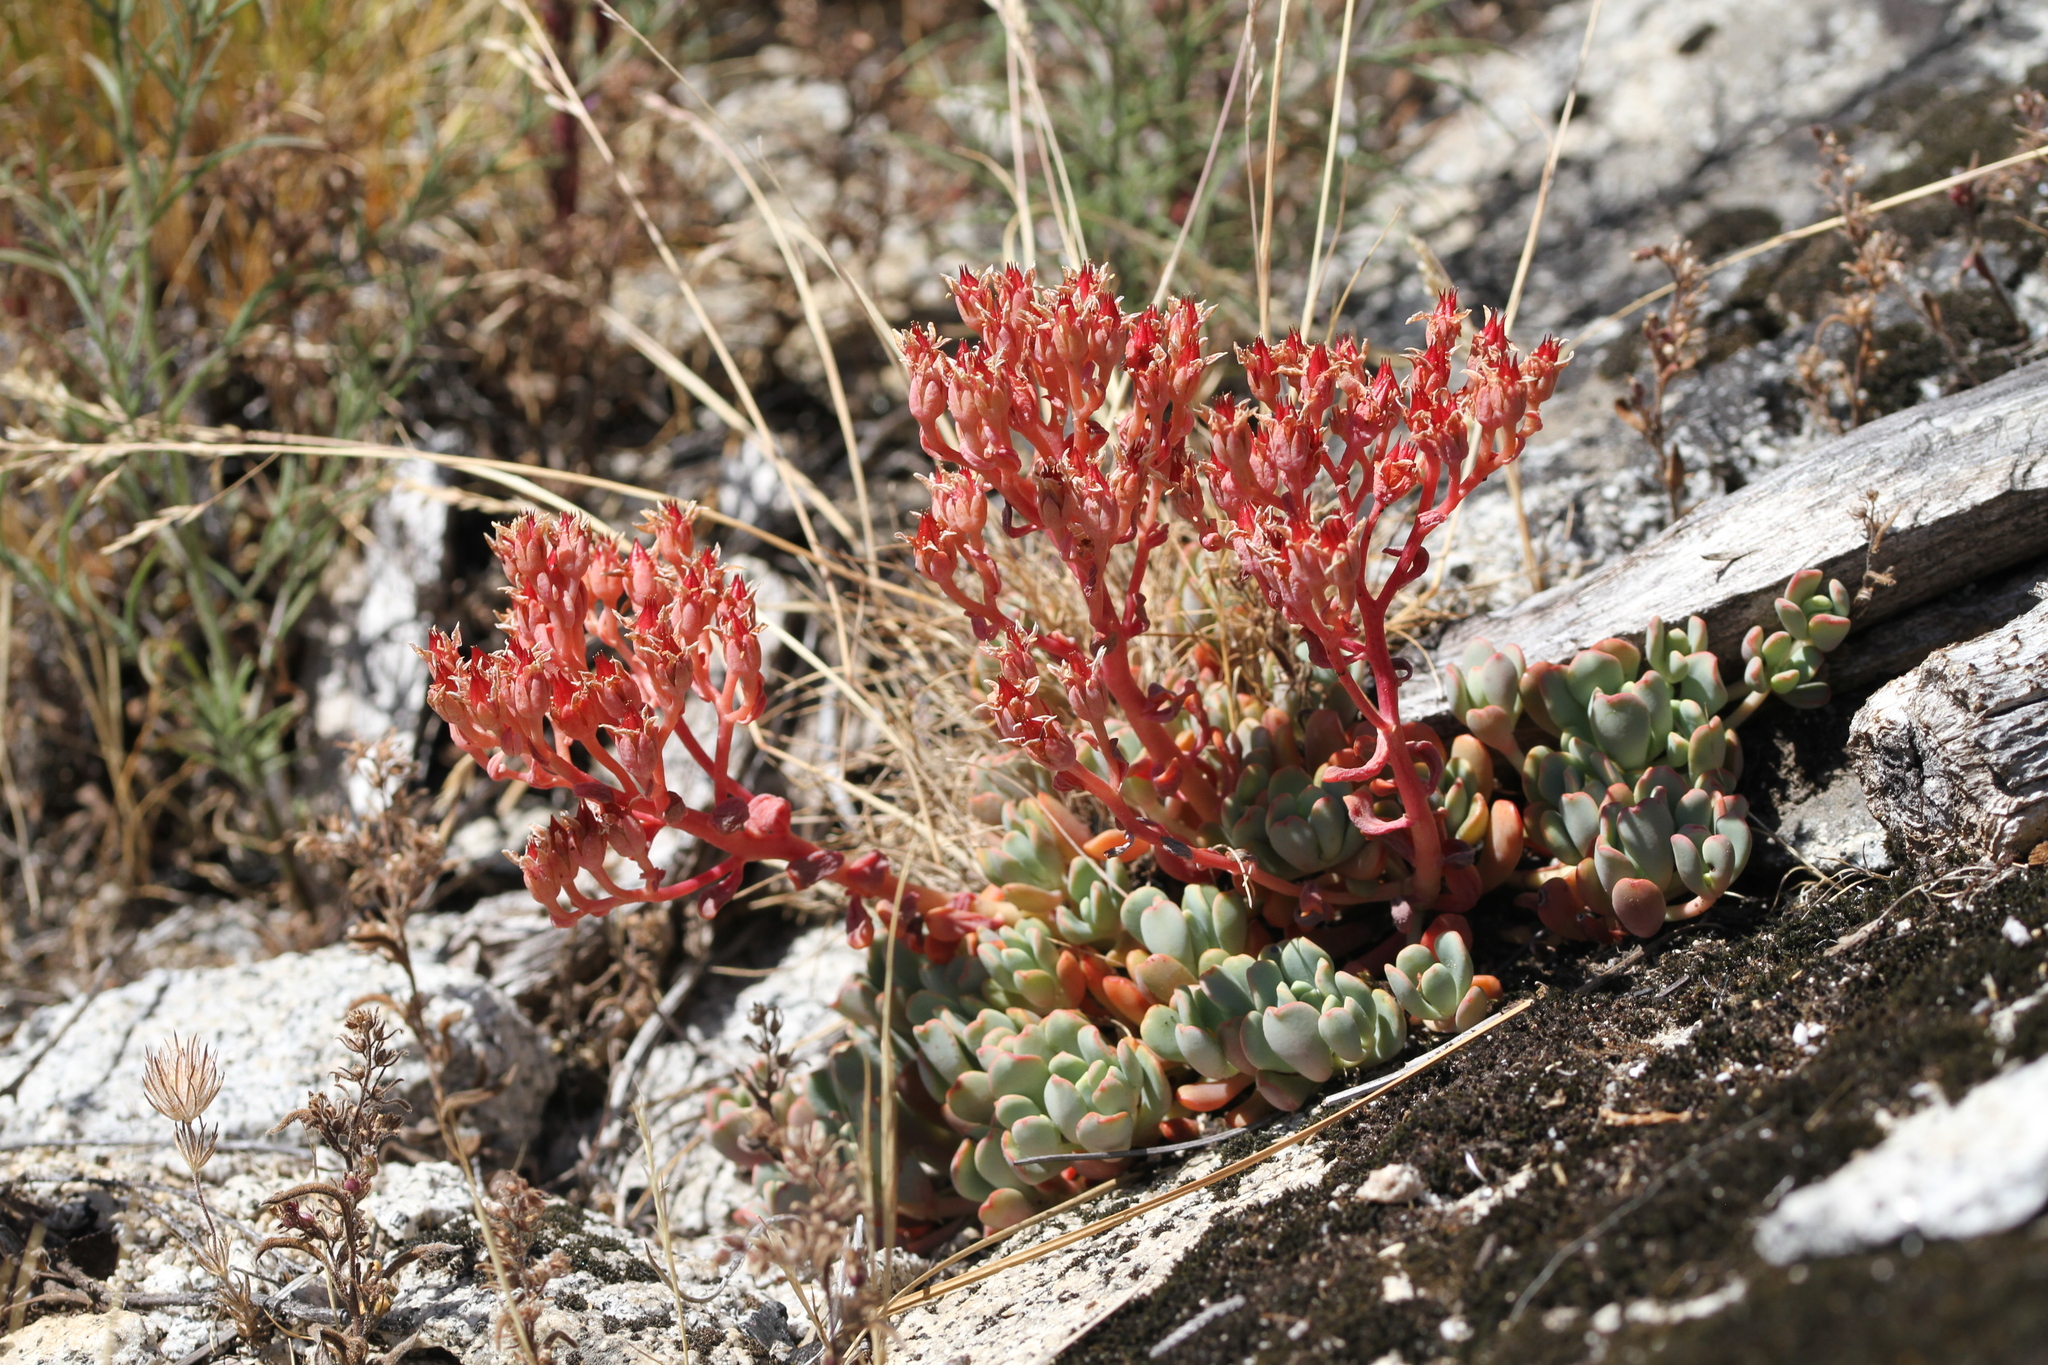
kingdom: Plantae
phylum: Tracheophyta
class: Magnoliopsida
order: Saxifragales
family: Crassulaceae
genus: Sedum
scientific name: Sedum obtusatum
